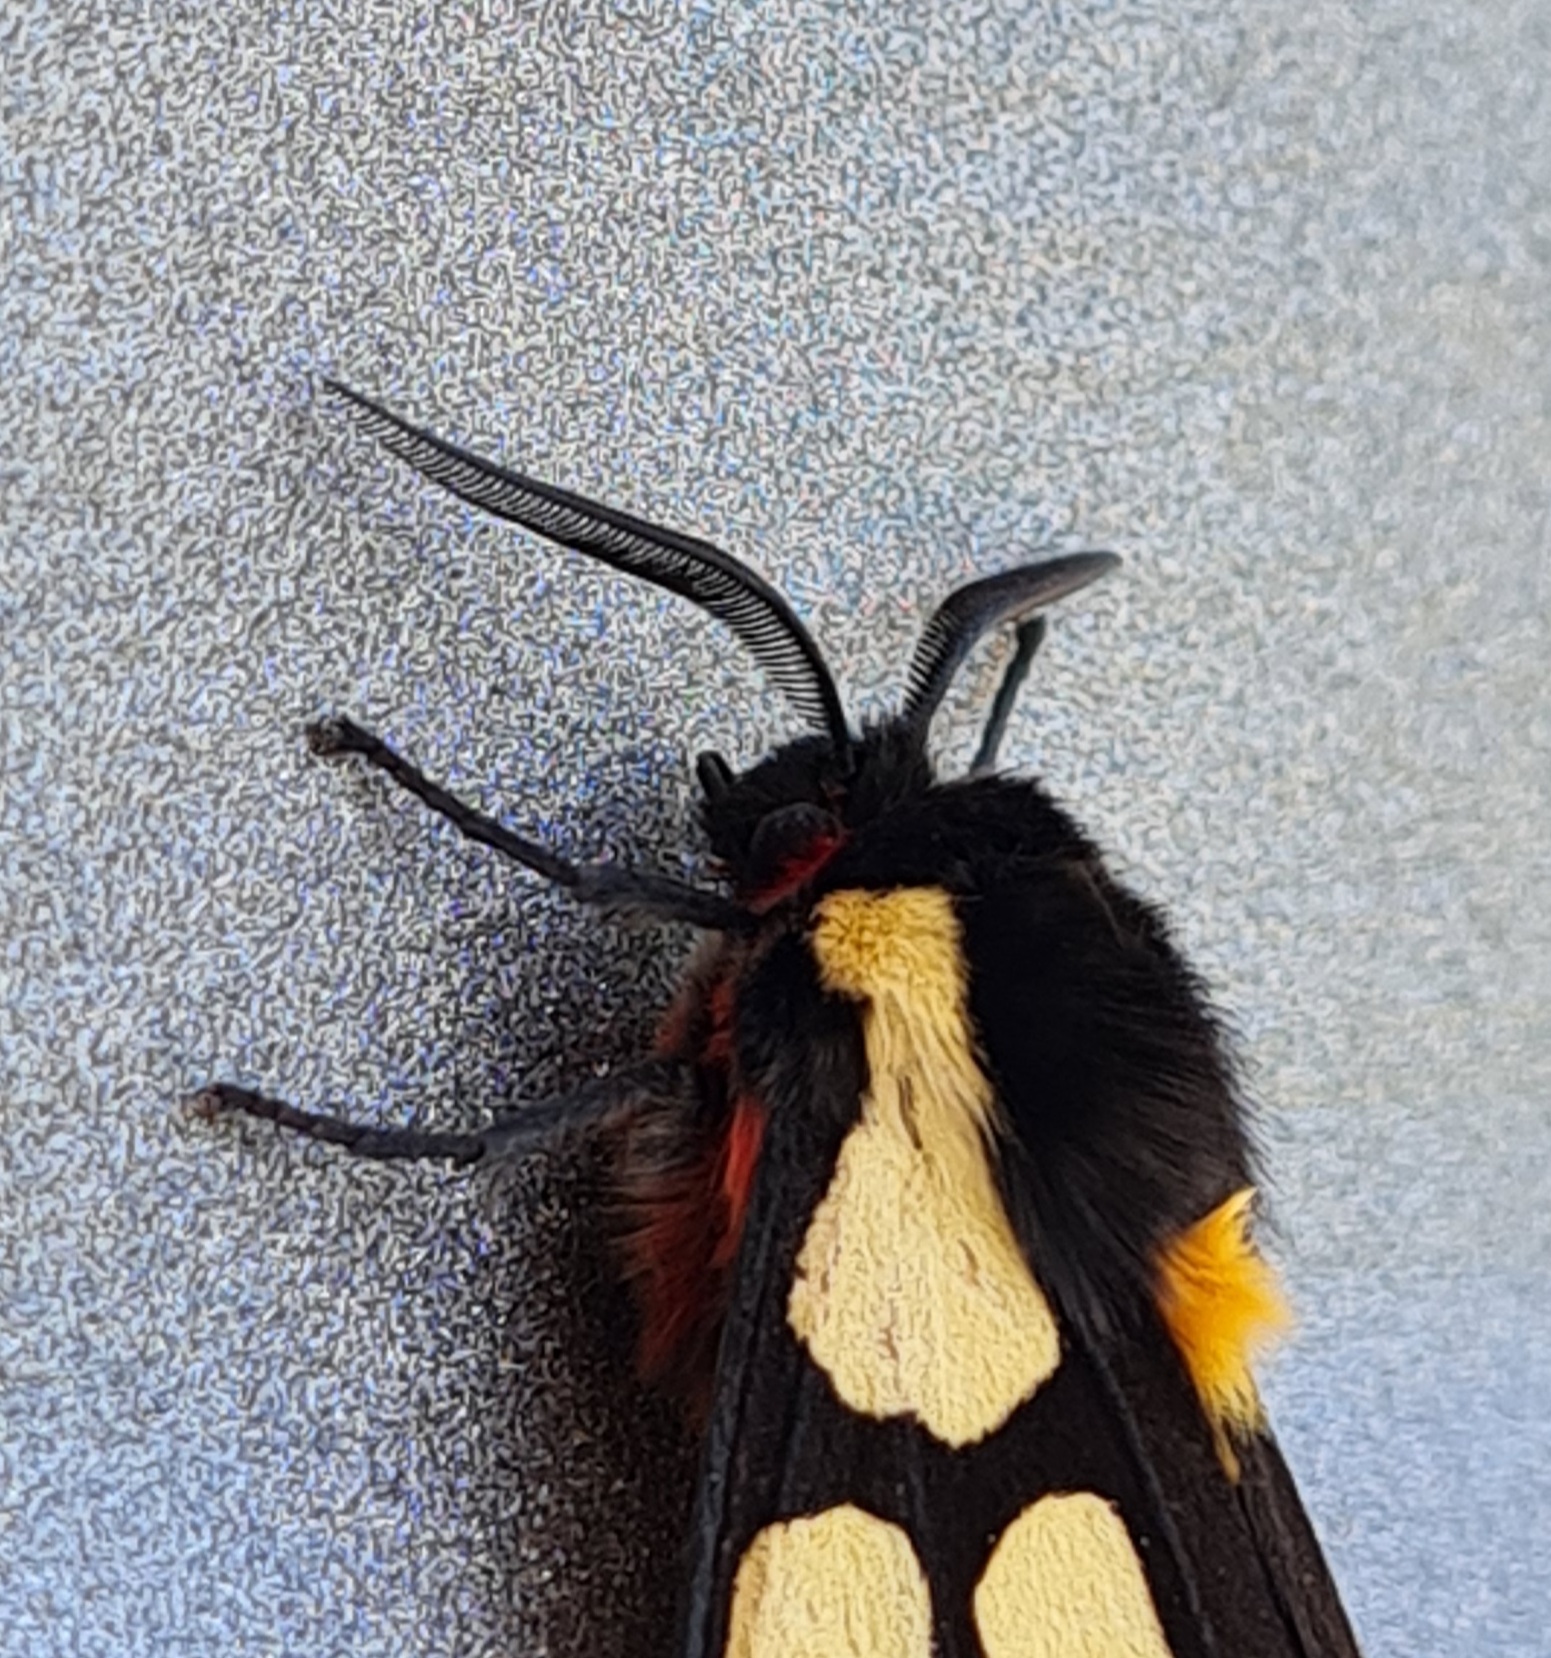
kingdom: Animalia
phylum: Arthropoda
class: Insecta
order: Lepidoptera
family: Erebidae
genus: Epicallia
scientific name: Epicallia villica
